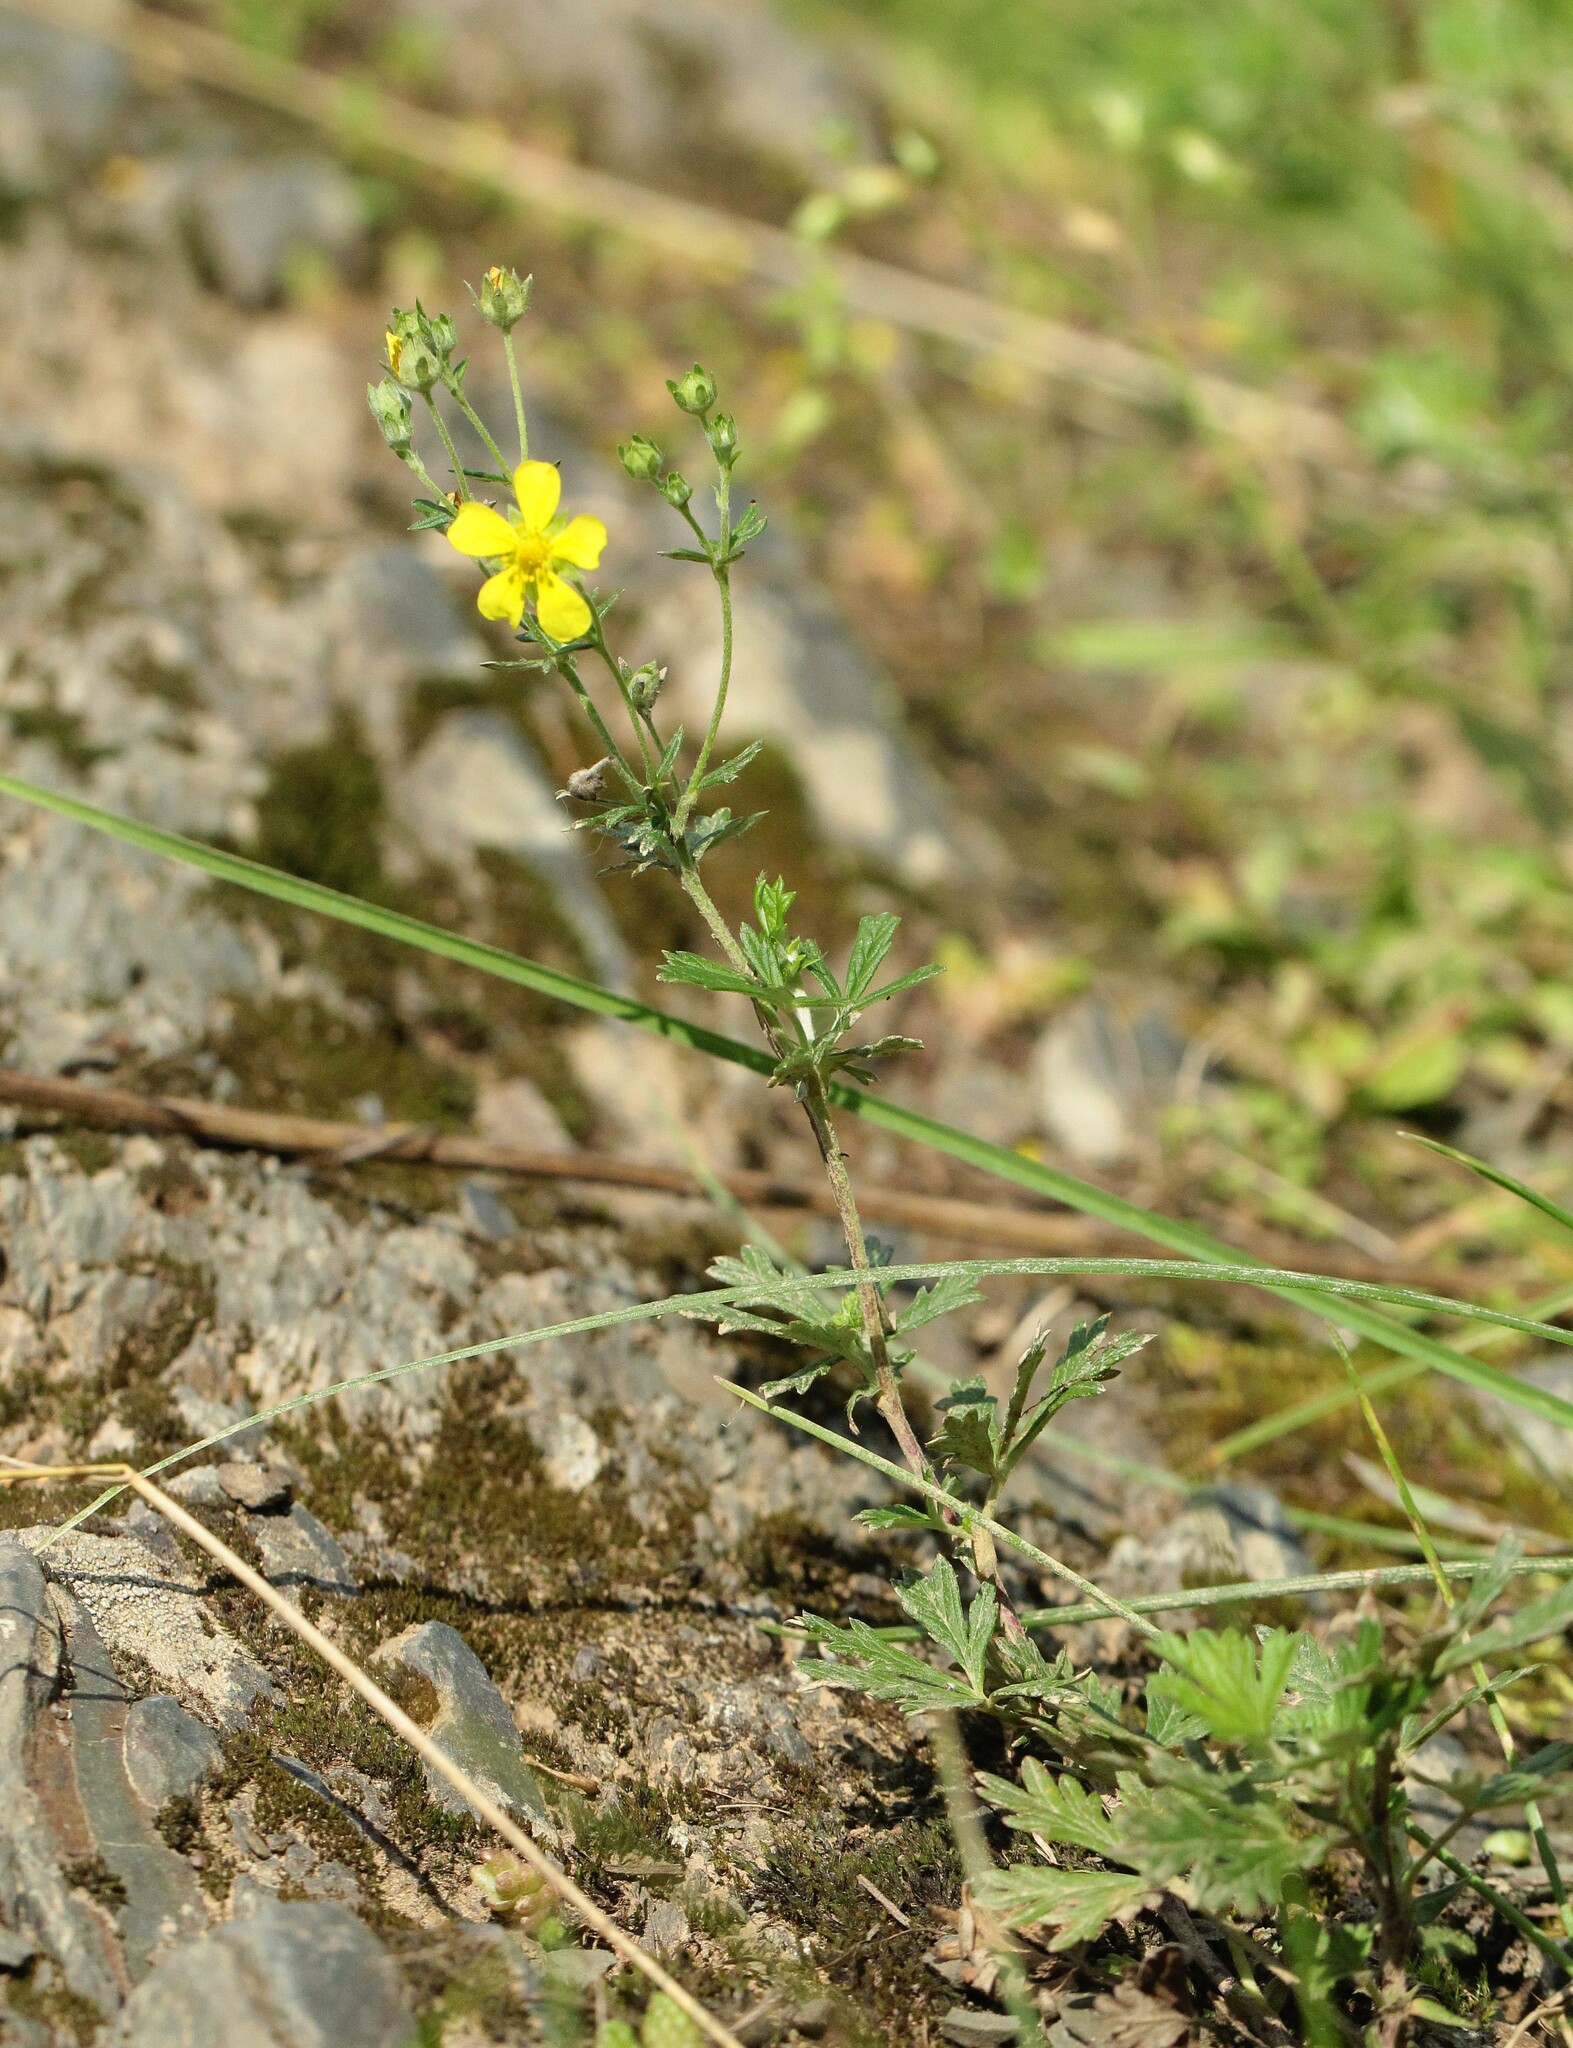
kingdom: Plantae
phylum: Tracheophyta
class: Magnoliopsida
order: Rosales
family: Rosaceae
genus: Potentilla
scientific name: Potentilla argentea
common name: Hoary cinquefoil
